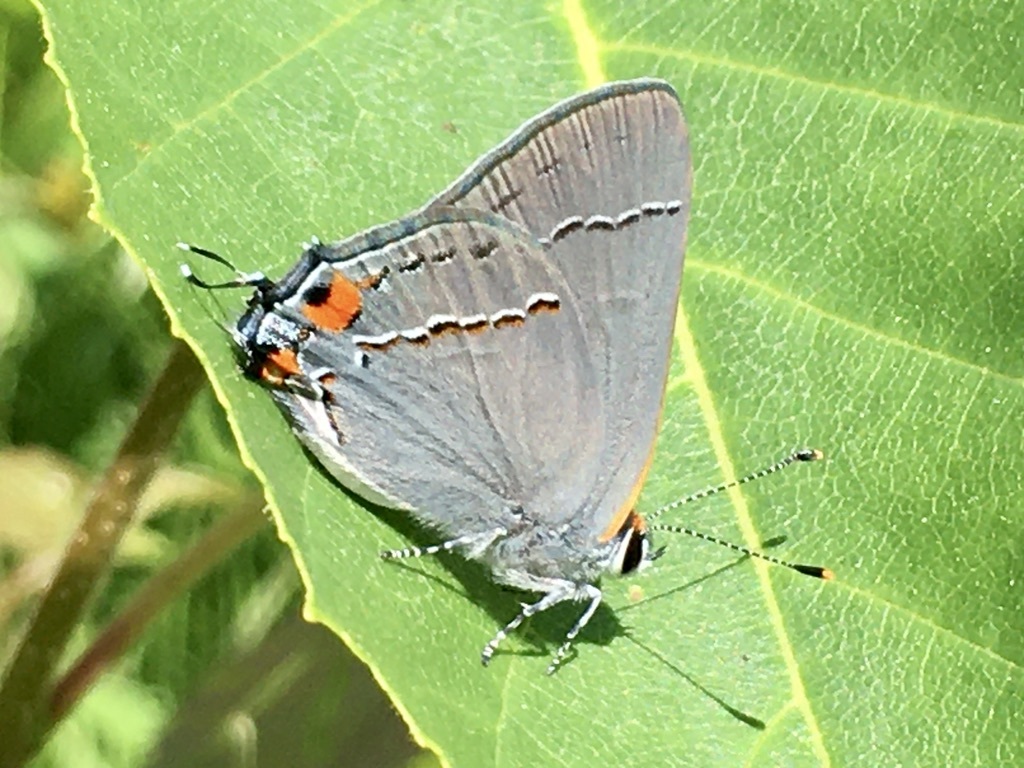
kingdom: Animalia
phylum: Arthropoda
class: Insecta
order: Lepidoptera
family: Lycaenidae
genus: Strymon
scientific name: Strymon melinus
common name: Gray hairstreak
